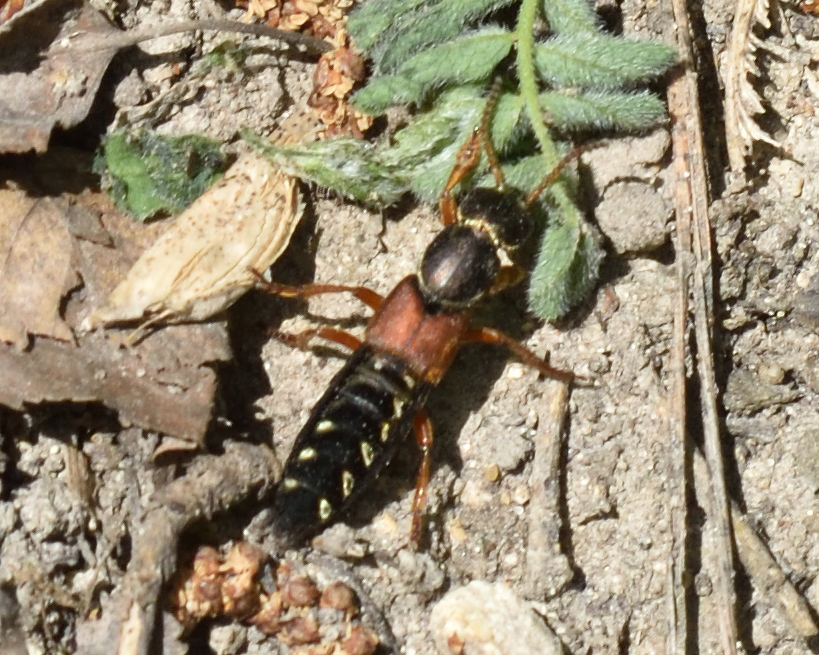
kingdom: Animalia
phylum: Arthropoda
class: Insecta
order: Coleoptera
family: Staphylinidae
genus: Staphylinus
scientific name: Staphylinus caesareus
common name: Staph beetle
